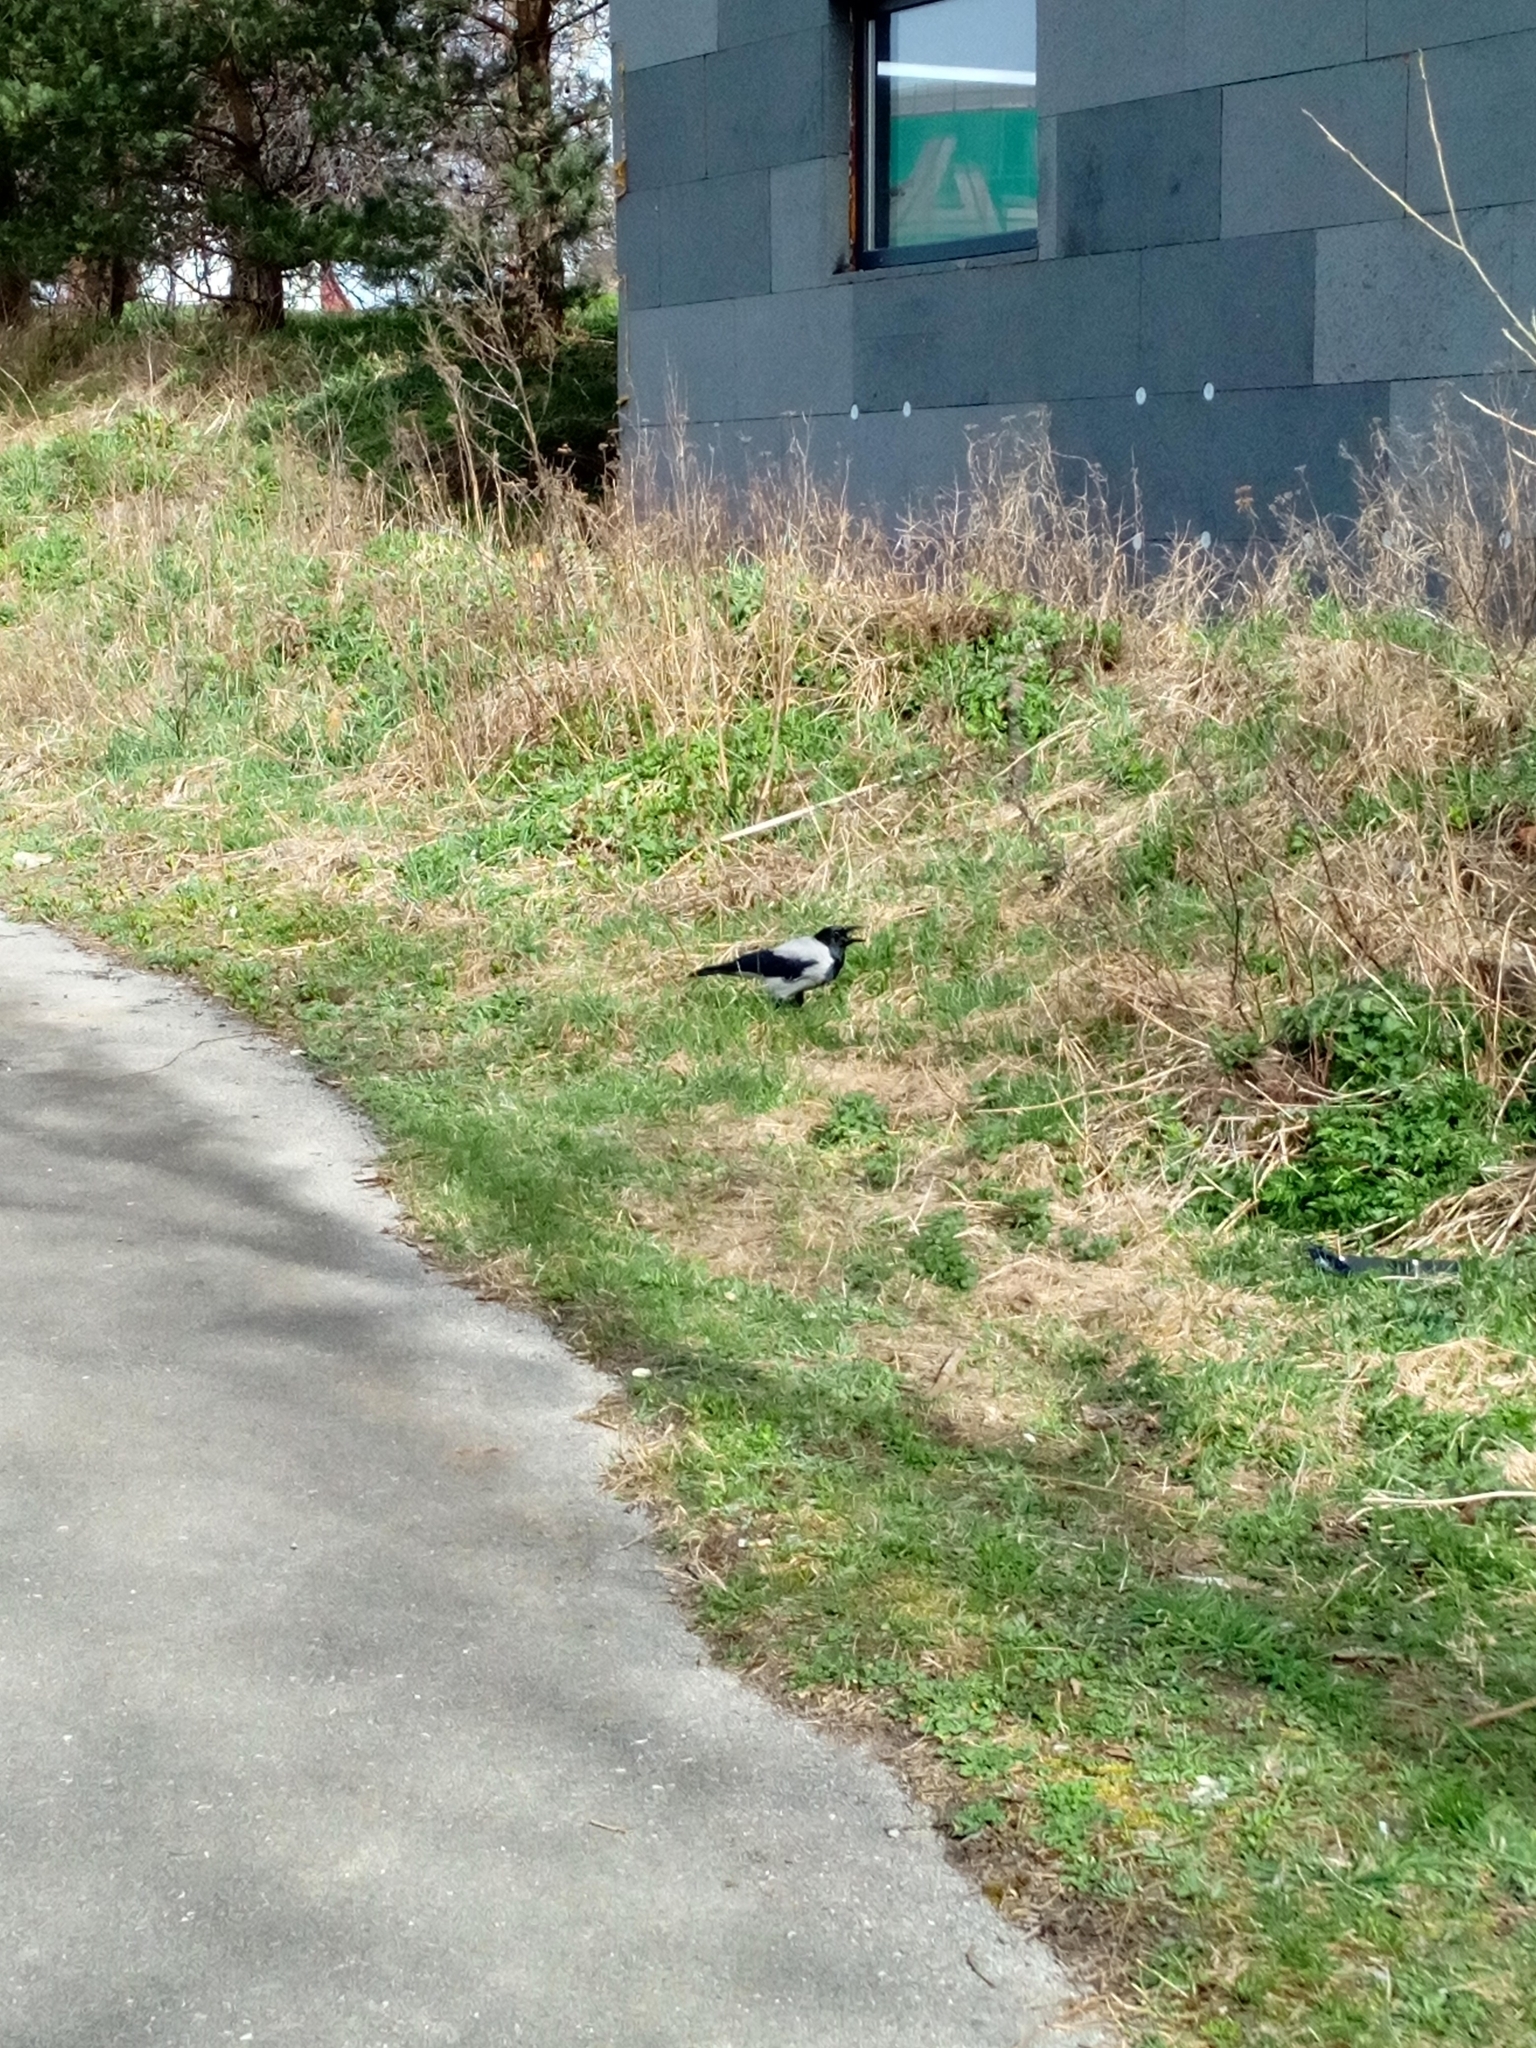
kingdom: Animalia
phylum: Chordata
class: Aves
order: Passeriformes
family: Corvidae
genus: Corvus
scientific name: Corvus cornix
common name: Hooded crow
